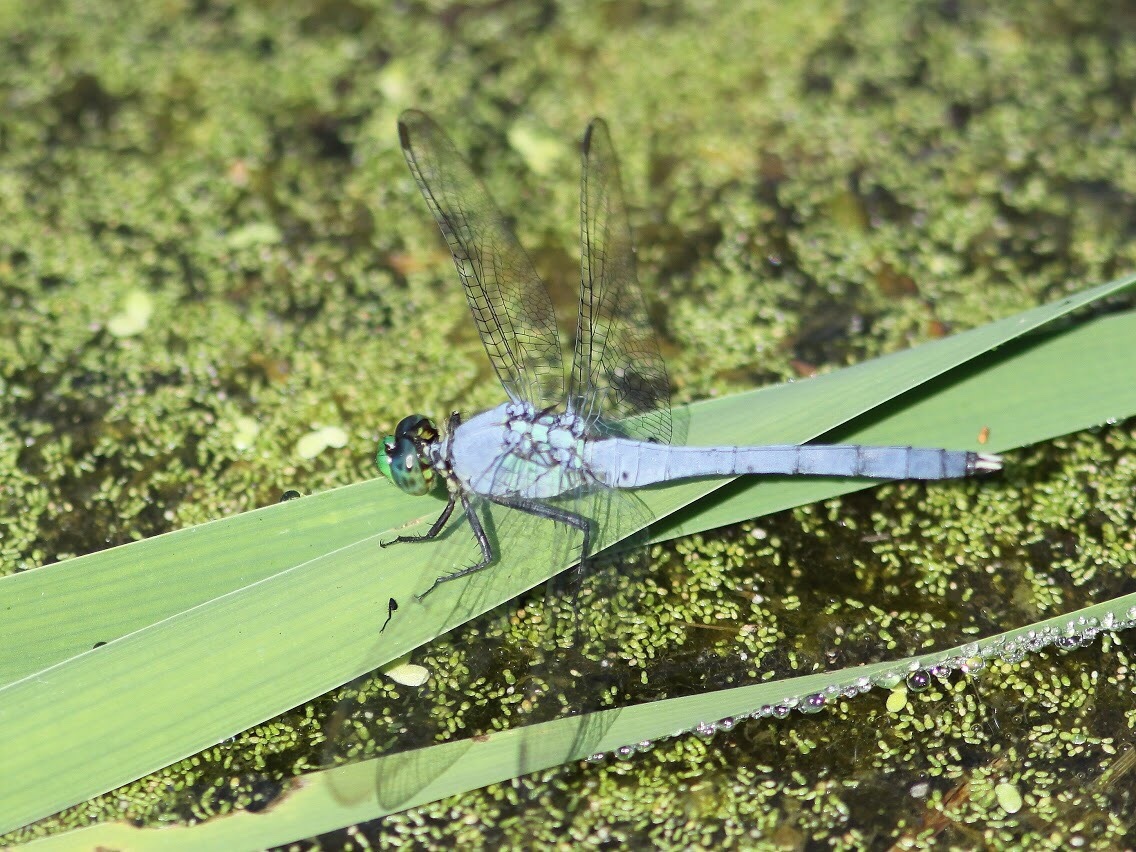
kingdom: Animalia
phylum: Arthropoda
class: Insecta
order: Odonata
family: Libellulidae
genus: Erythemis
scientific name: Erythemis simplicicollis
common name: Eastern pondhawk
